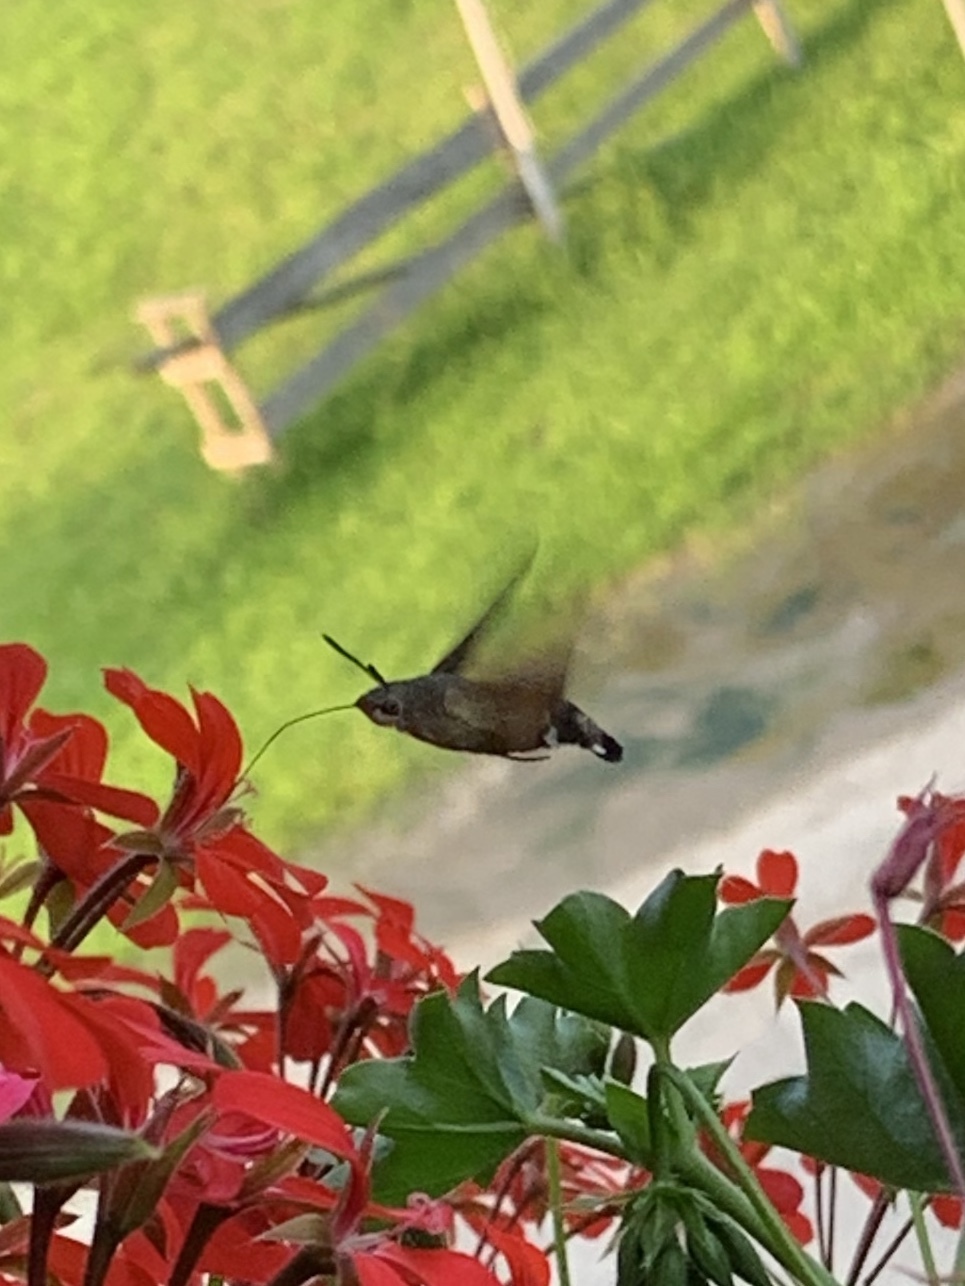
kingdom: Animalia
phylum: Arthropoda
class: Insecta
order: Lepidoptera
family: Sphingidae
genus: Macroglossum
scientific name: Macroglossum stellatarum
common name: Humming-bird hawk-moth
